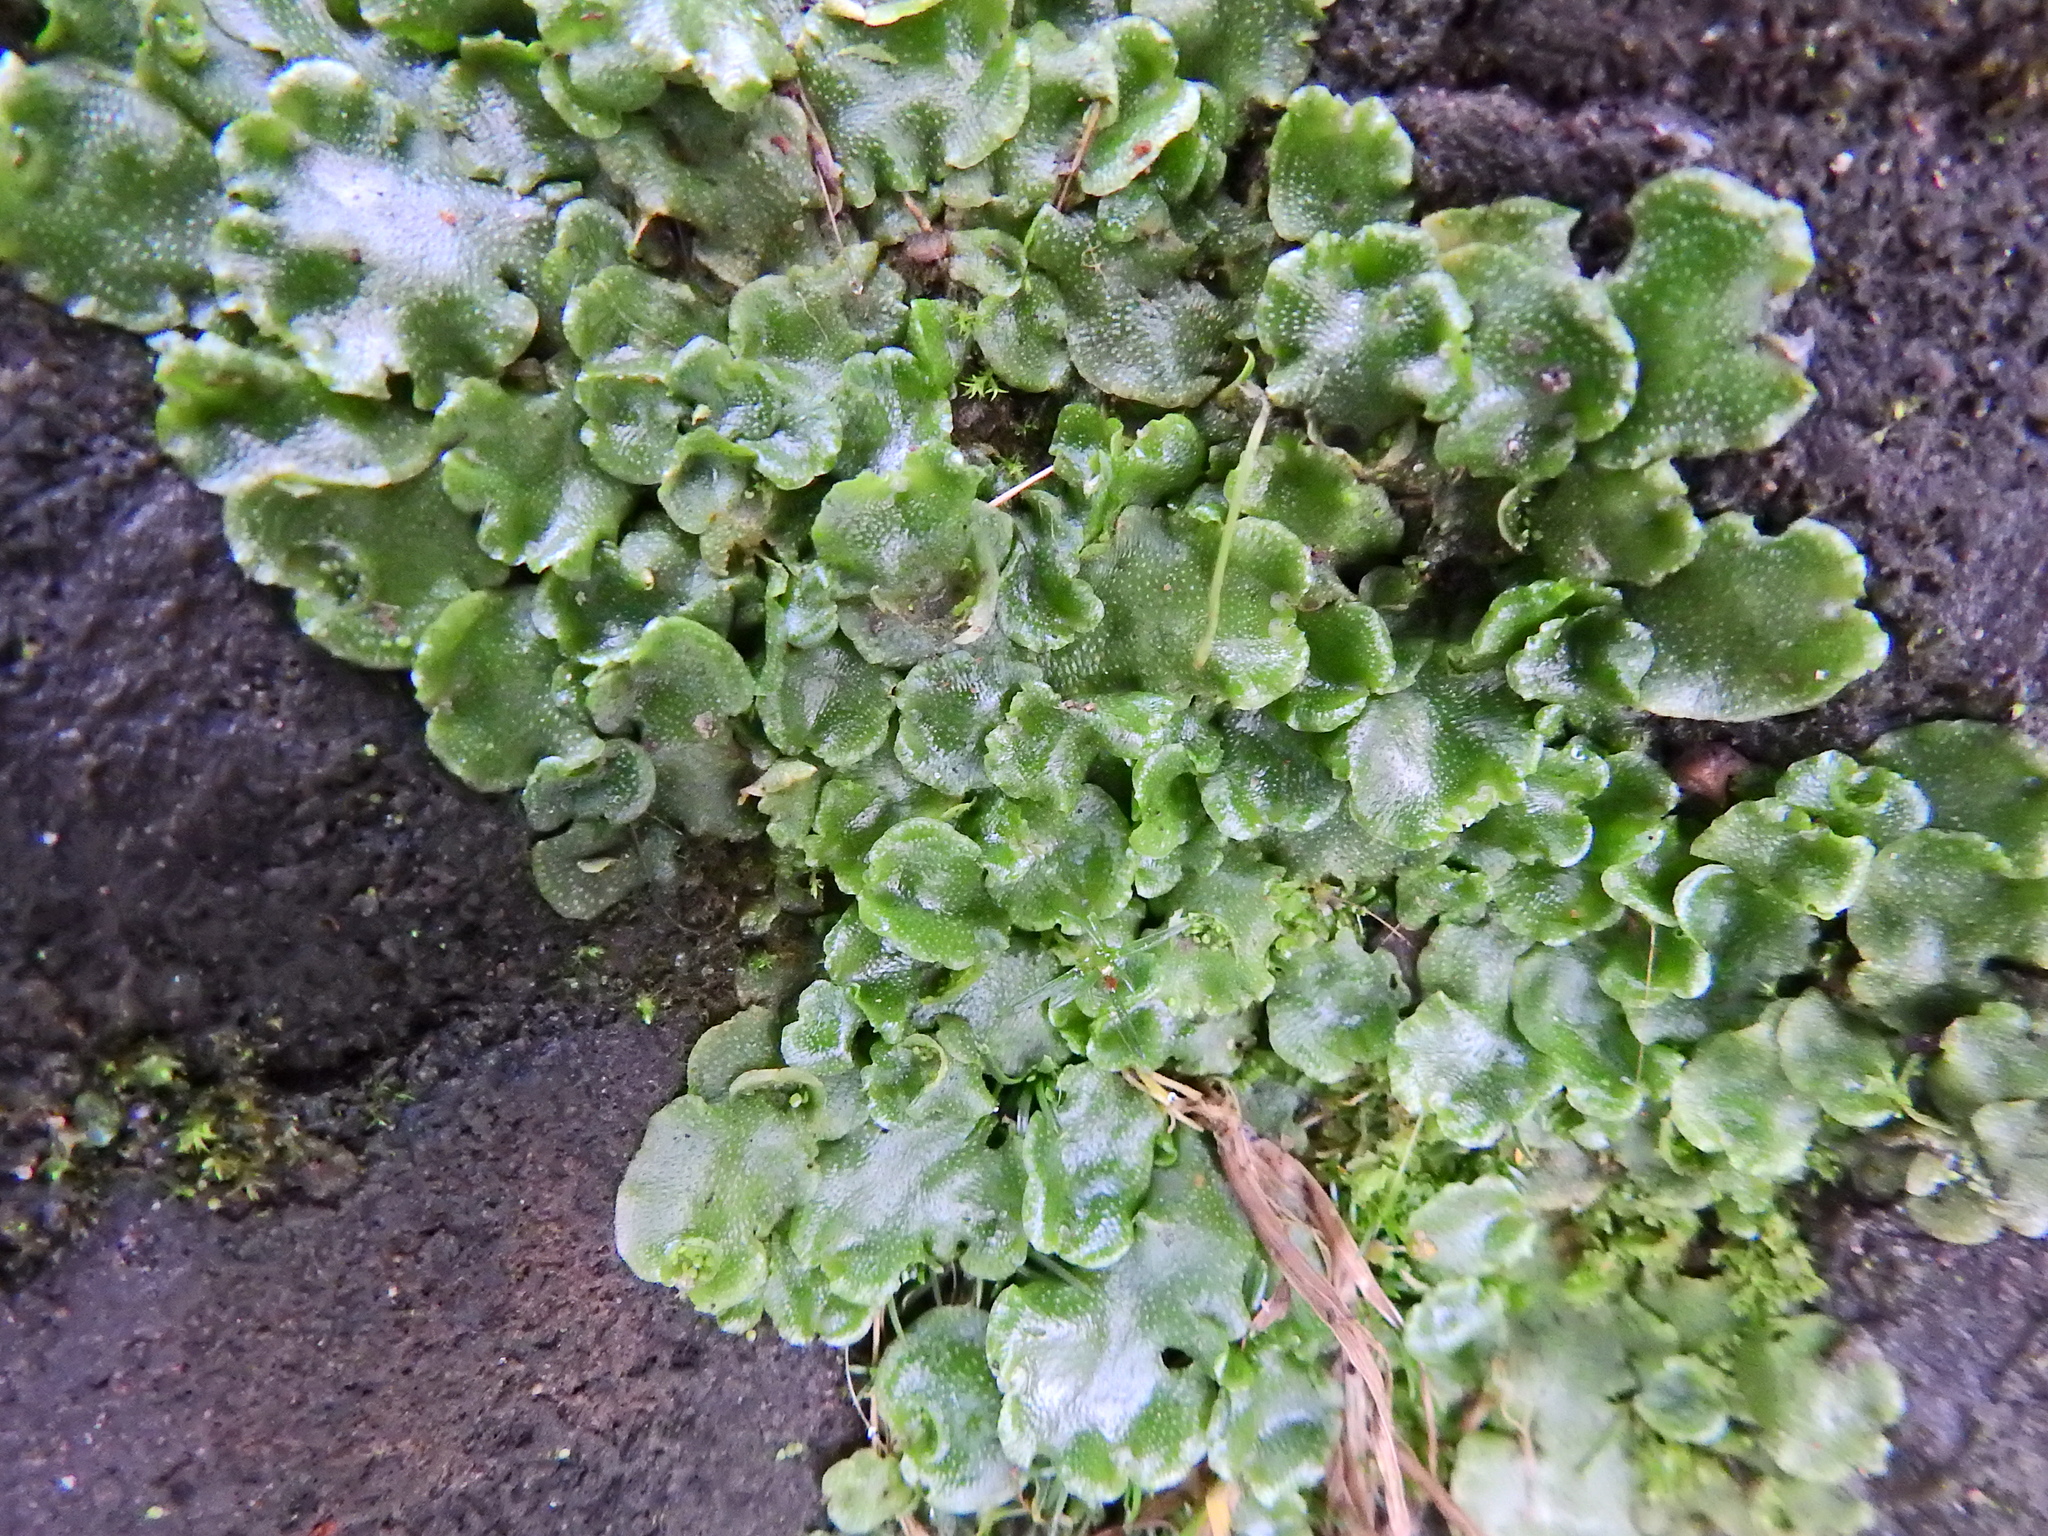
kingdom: Plantae
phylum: Marchantiophyta
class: Marchantiopsida
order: Lunulariales
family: Lunulariaceae
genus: Lunularia
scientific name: Lunularia cruciata
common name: Crescent-cup liverwort
